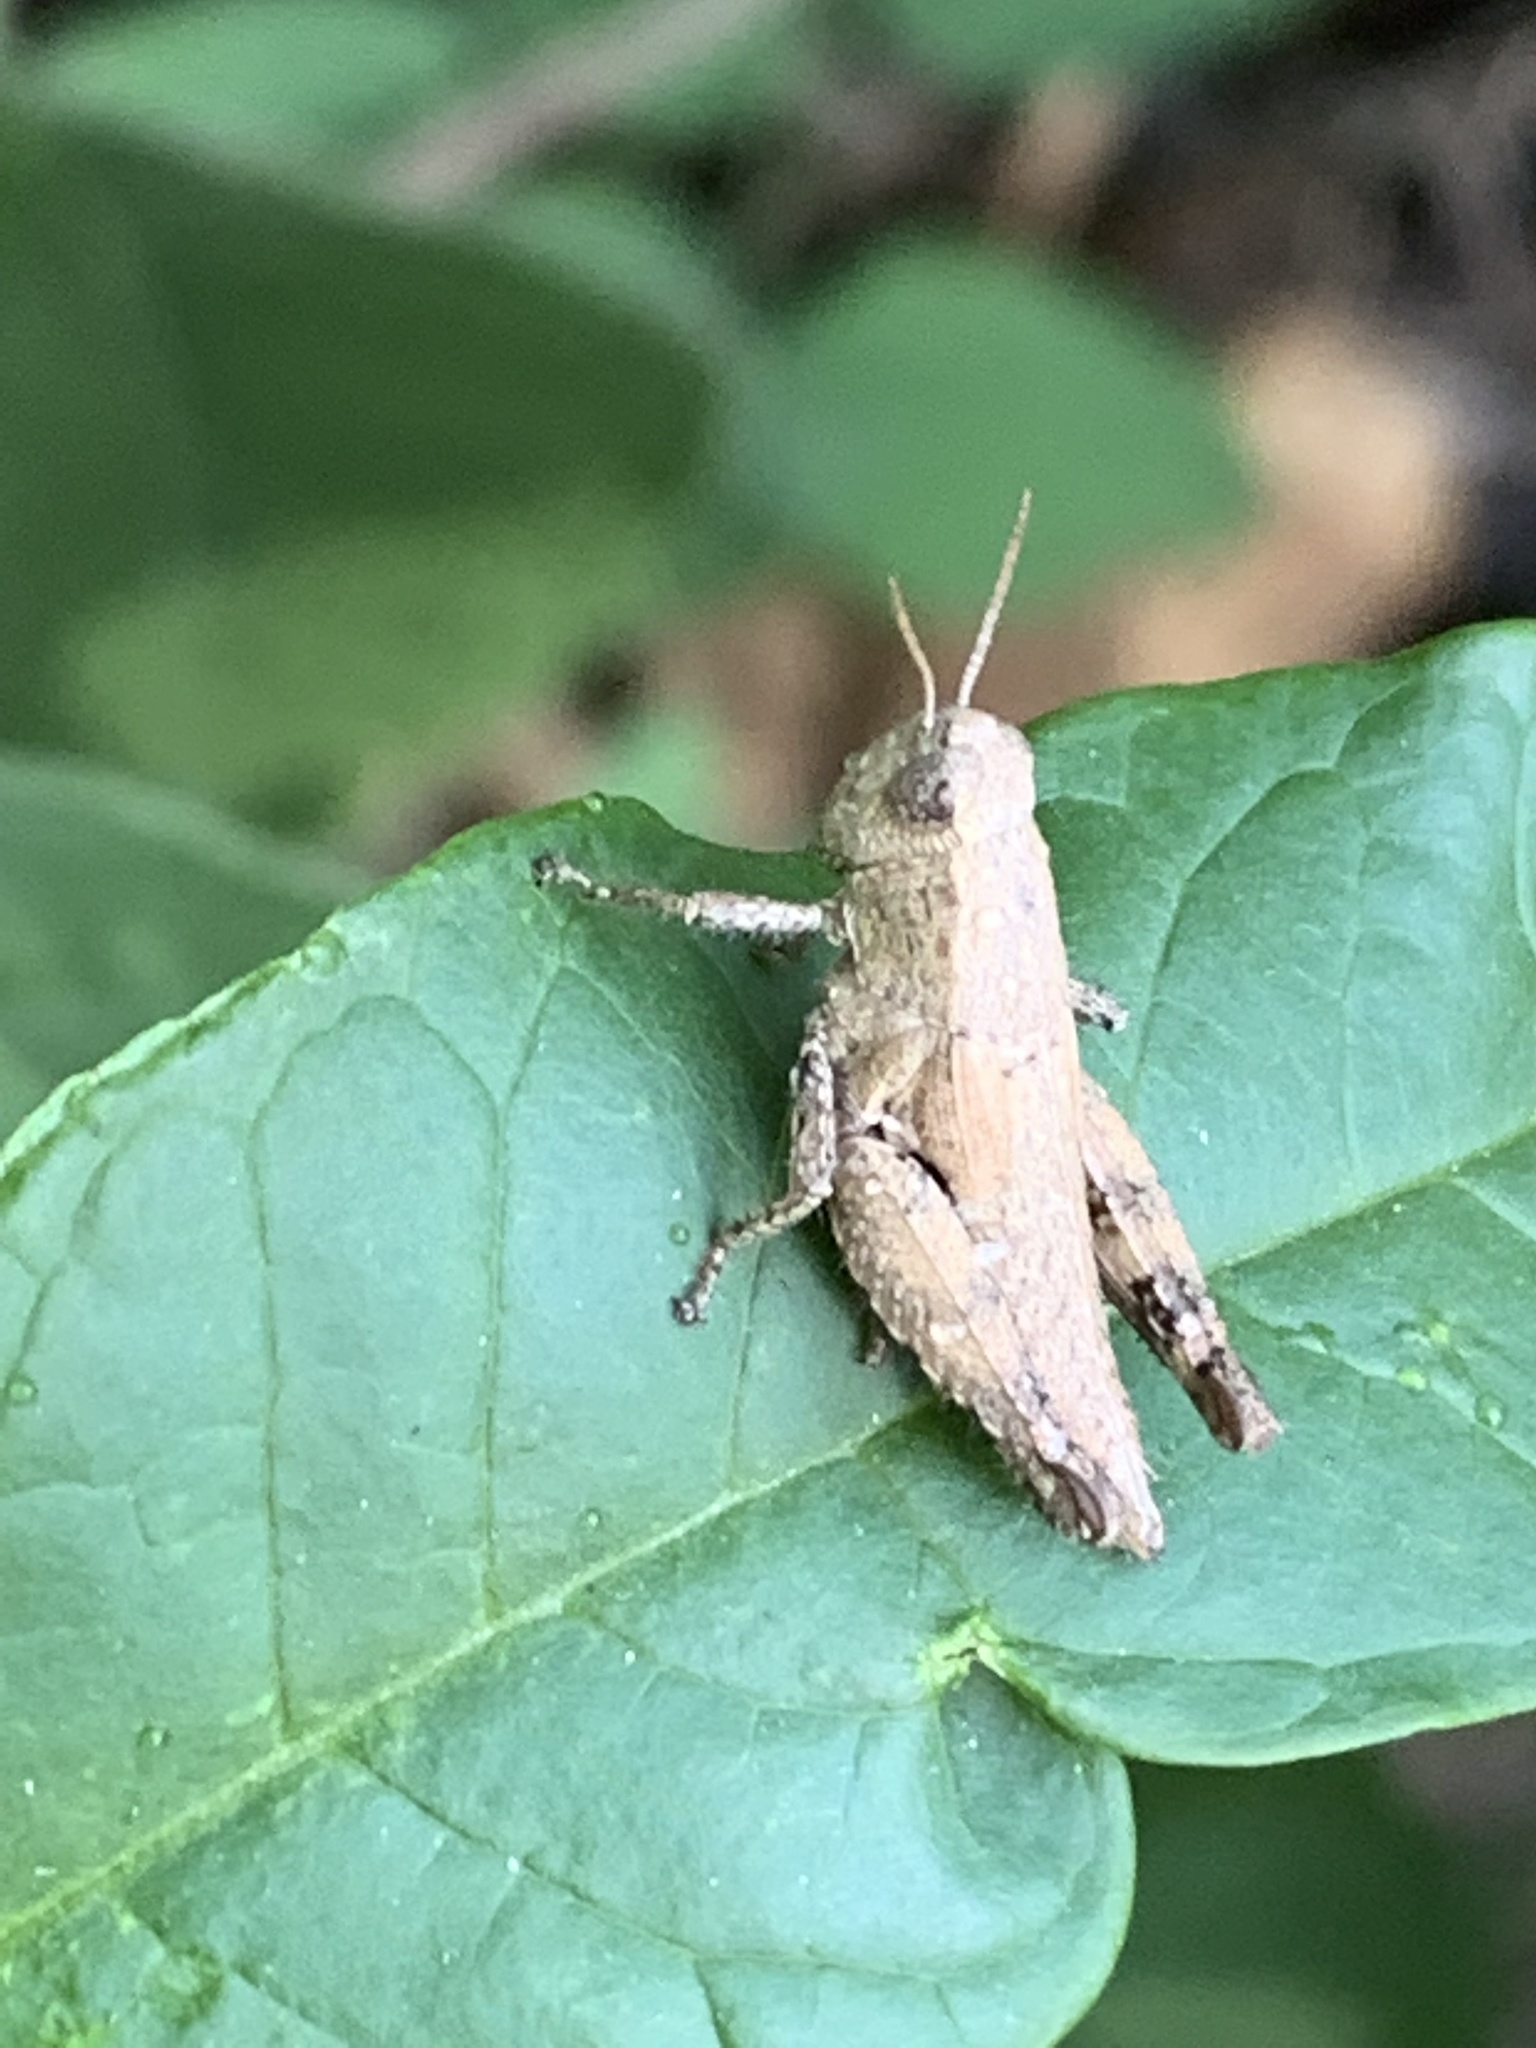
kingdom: Animalia
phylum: Arthropoda
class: Insecta
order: Orthoptera
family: Acrididae
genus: Pezotettix
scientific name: Pezotettix giornae
